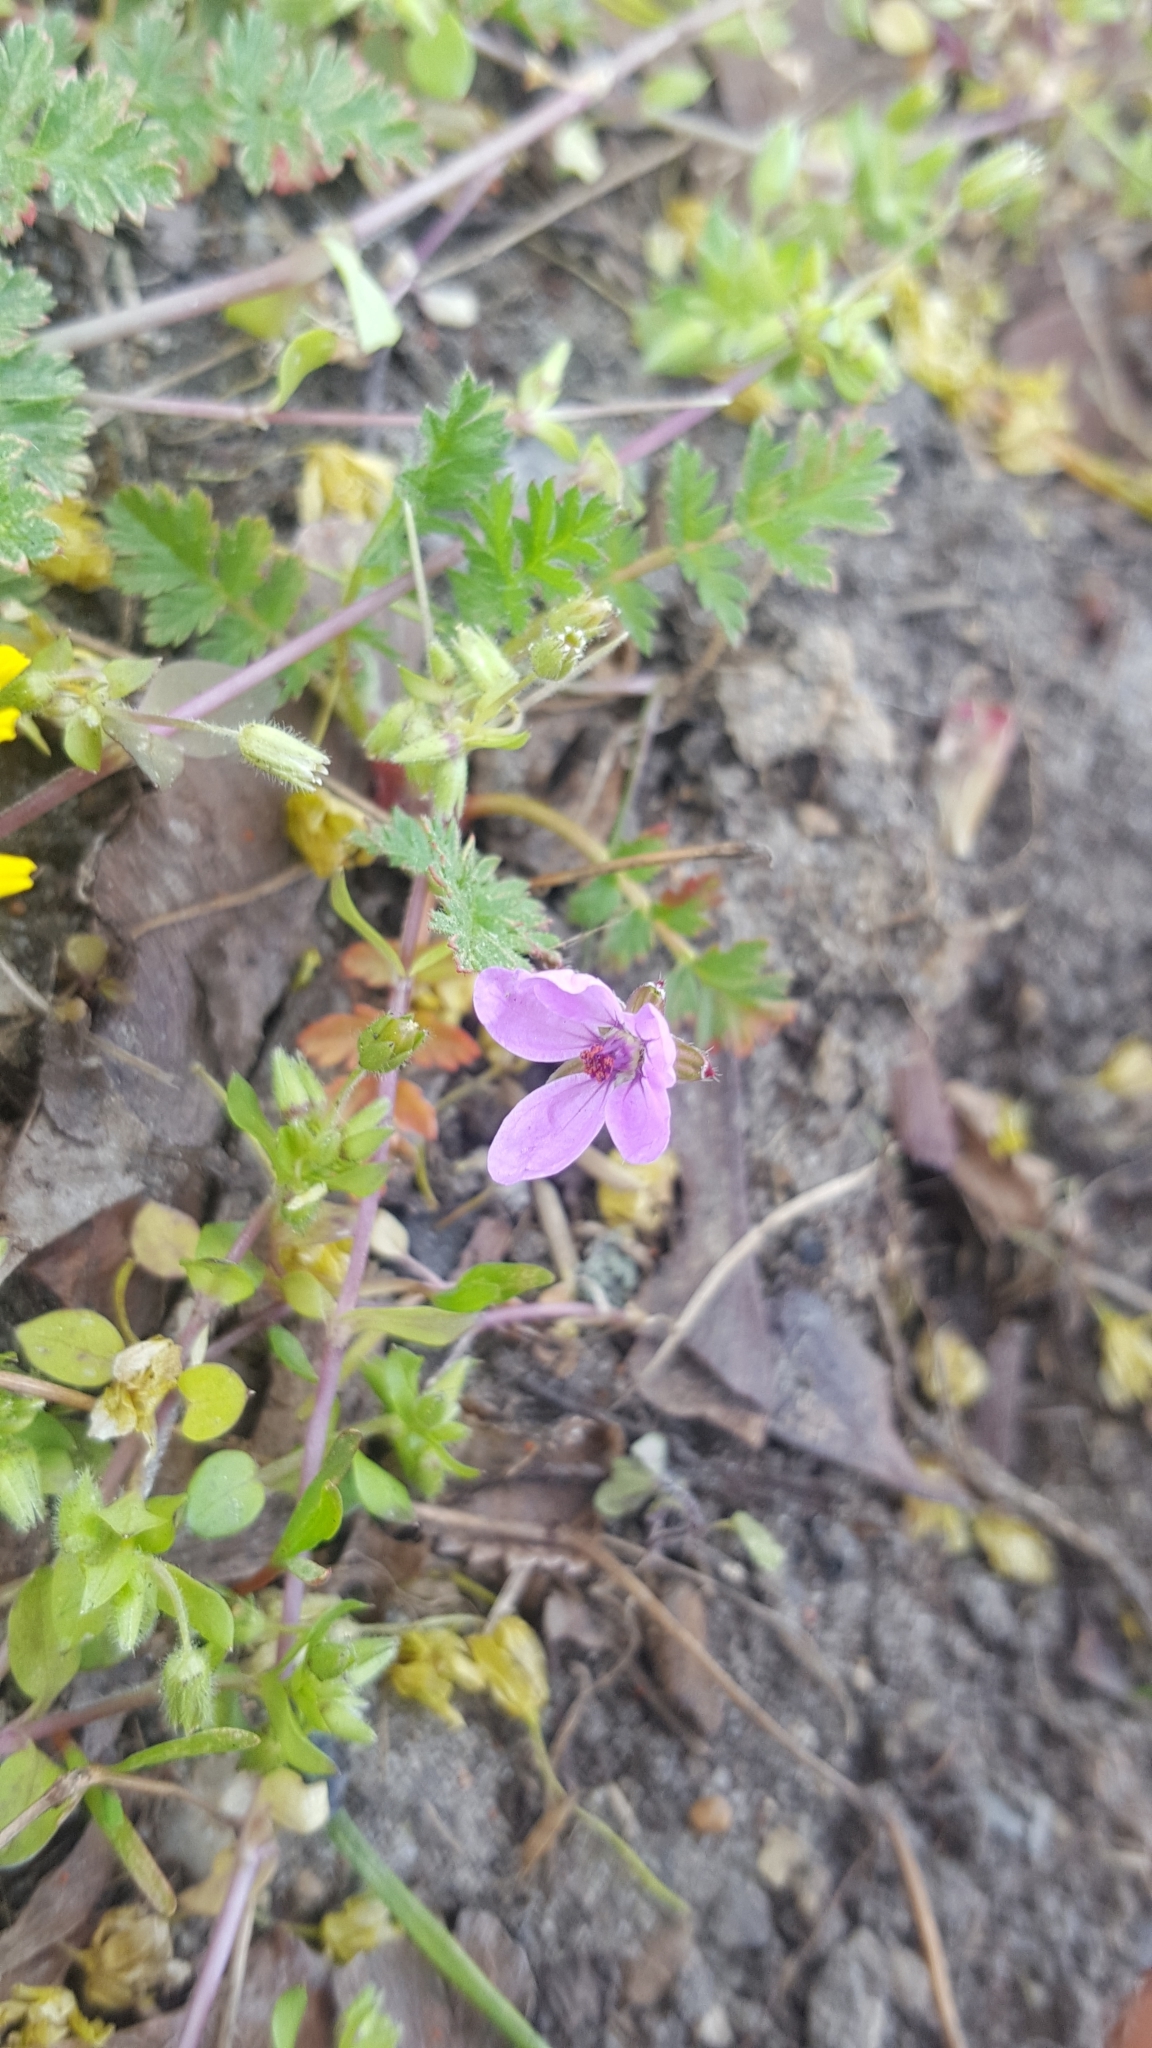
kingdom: Plantae
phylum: Tracheophyta
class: Magnoliopsida
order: Geraniales
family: Geraniaceae
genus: Erodium
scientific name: Erodium cicutarium
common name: Common stork's-bill
